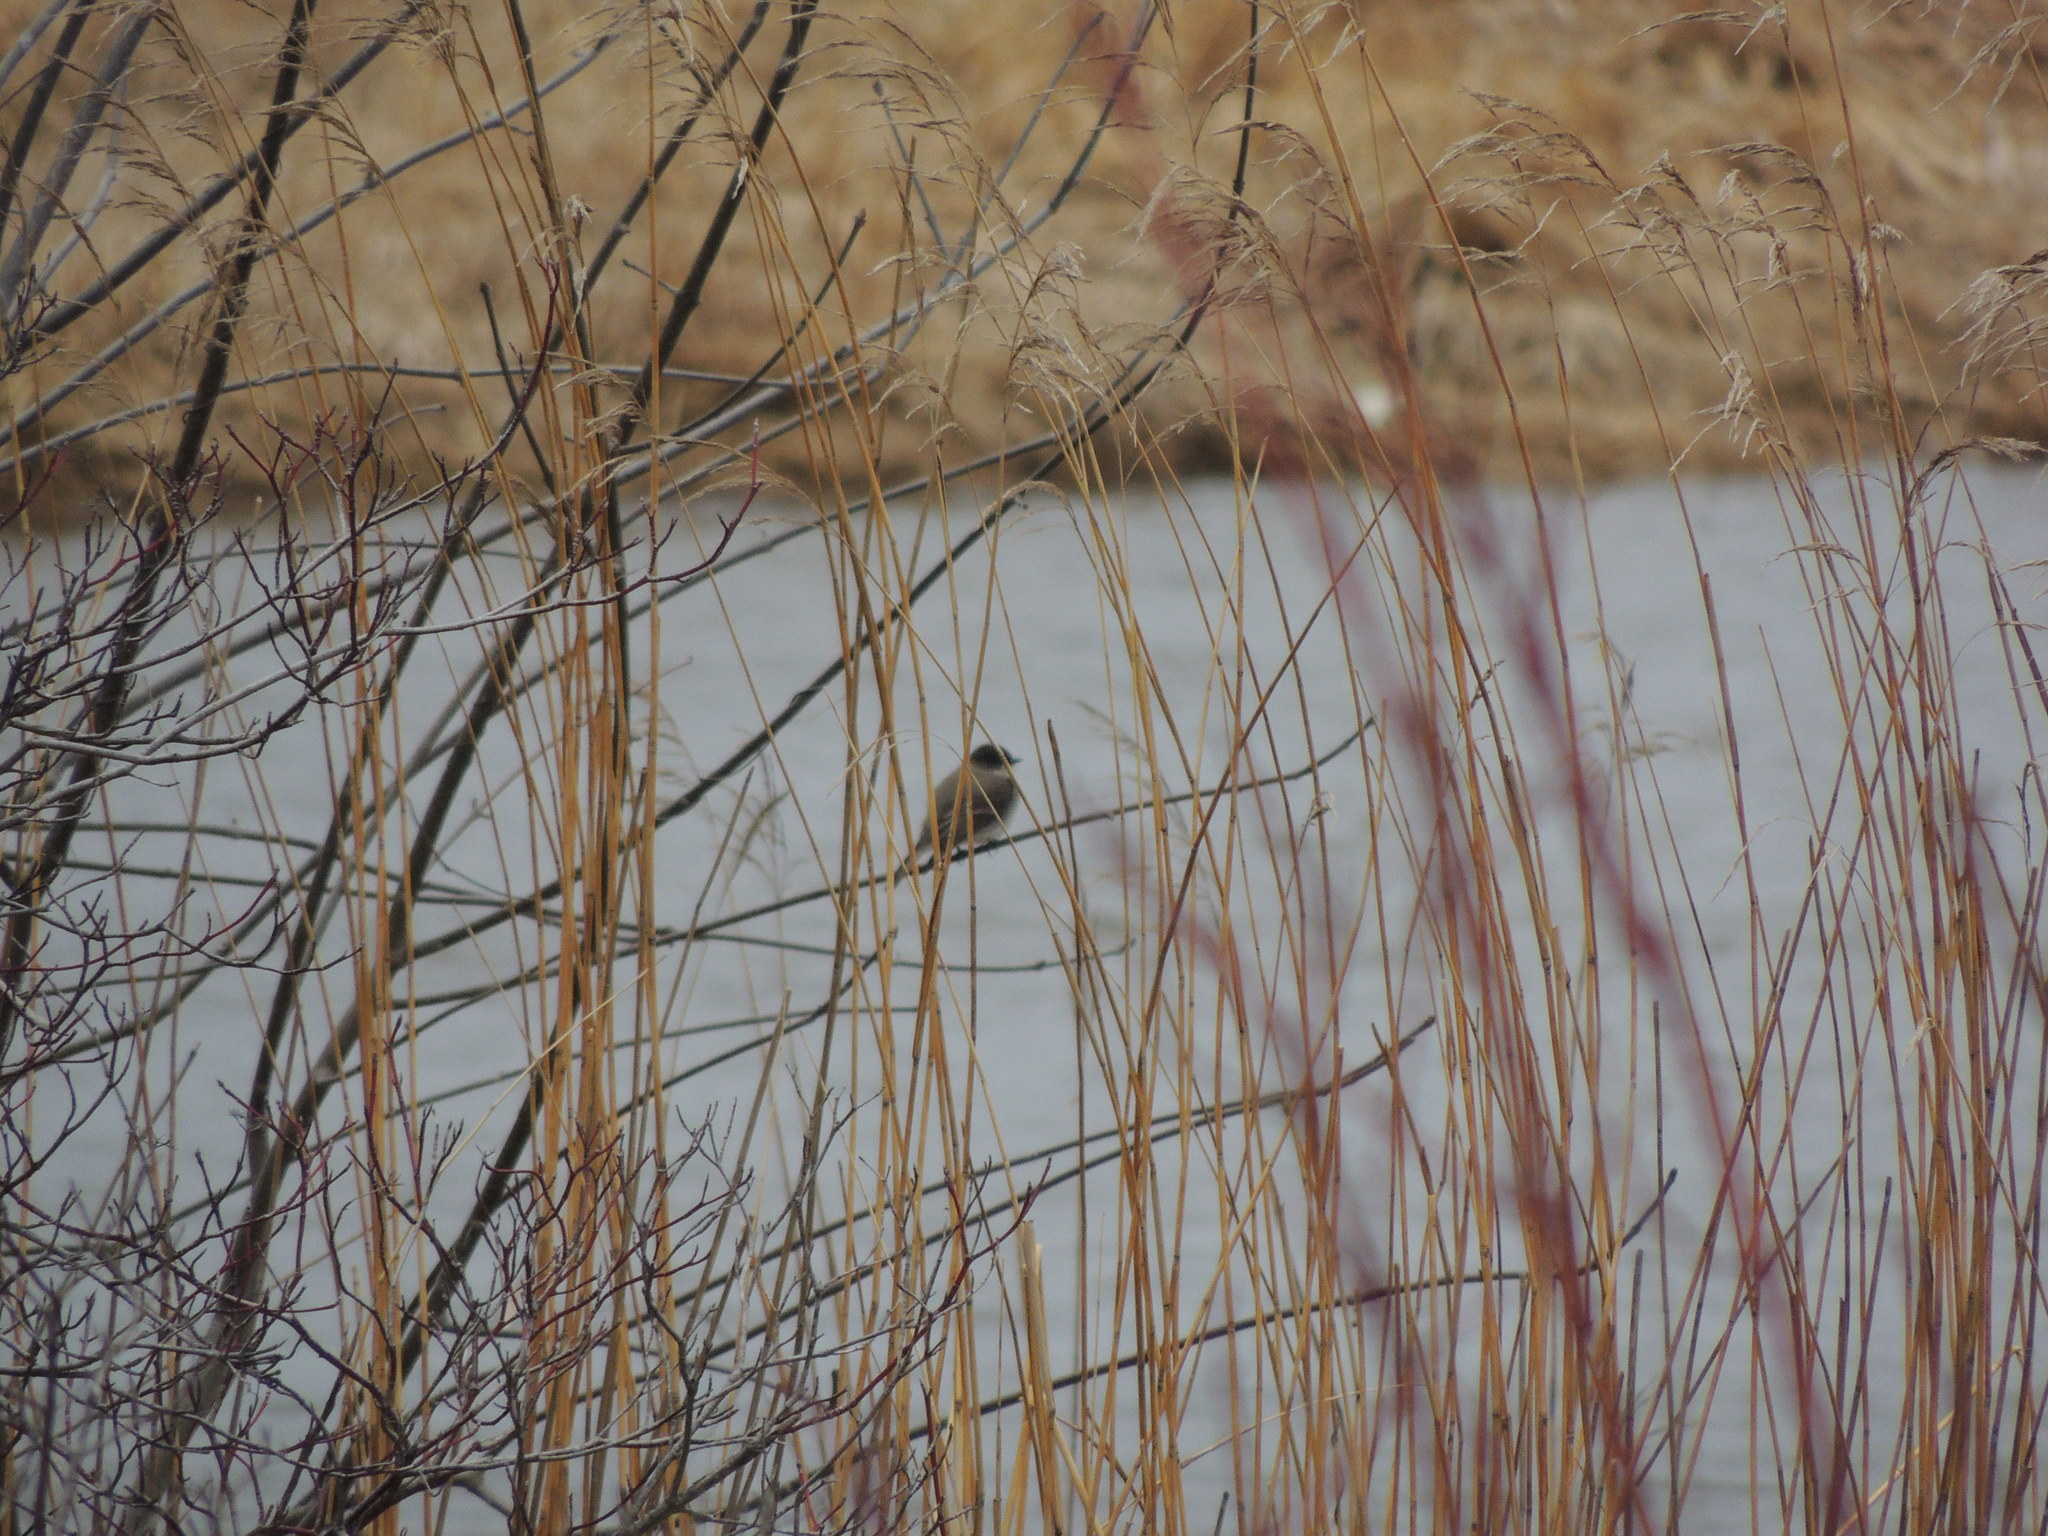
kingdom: Animalia
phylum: Chordata
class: Aves
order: Passeriformes
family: Tyrannidae
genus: Sayornis
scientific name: Sayornis phoebe
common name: Eastern phoebe
